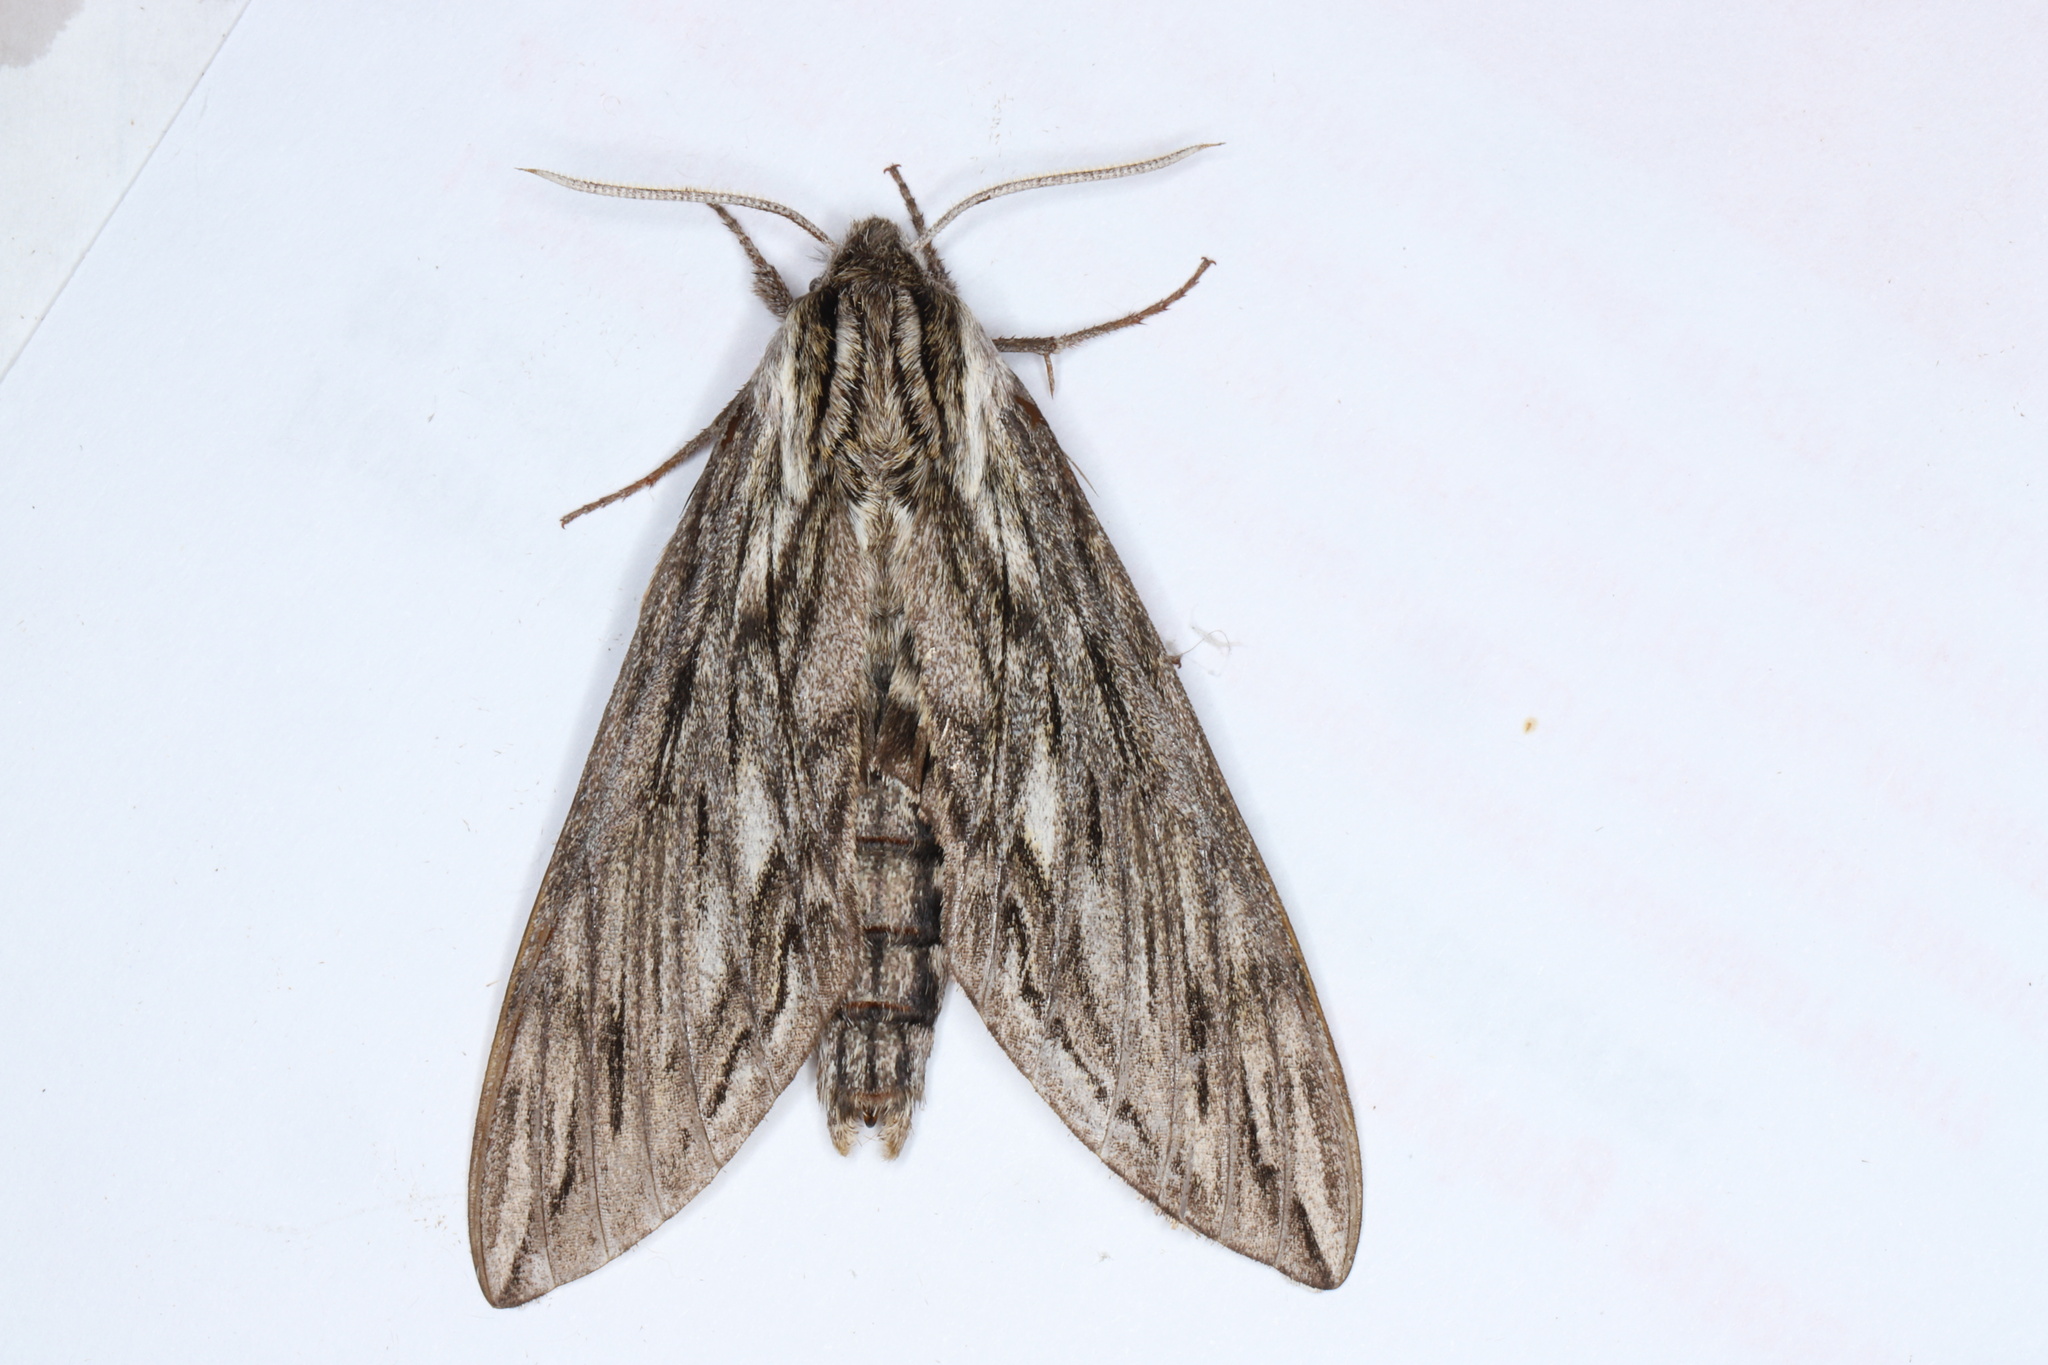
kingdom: Animalia
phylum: Arthropoda
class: Insecta
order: Lepidoptera
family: Sphingidae
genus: Sphinx
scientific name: Sphinx canadensis
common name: Canadian sphinx
